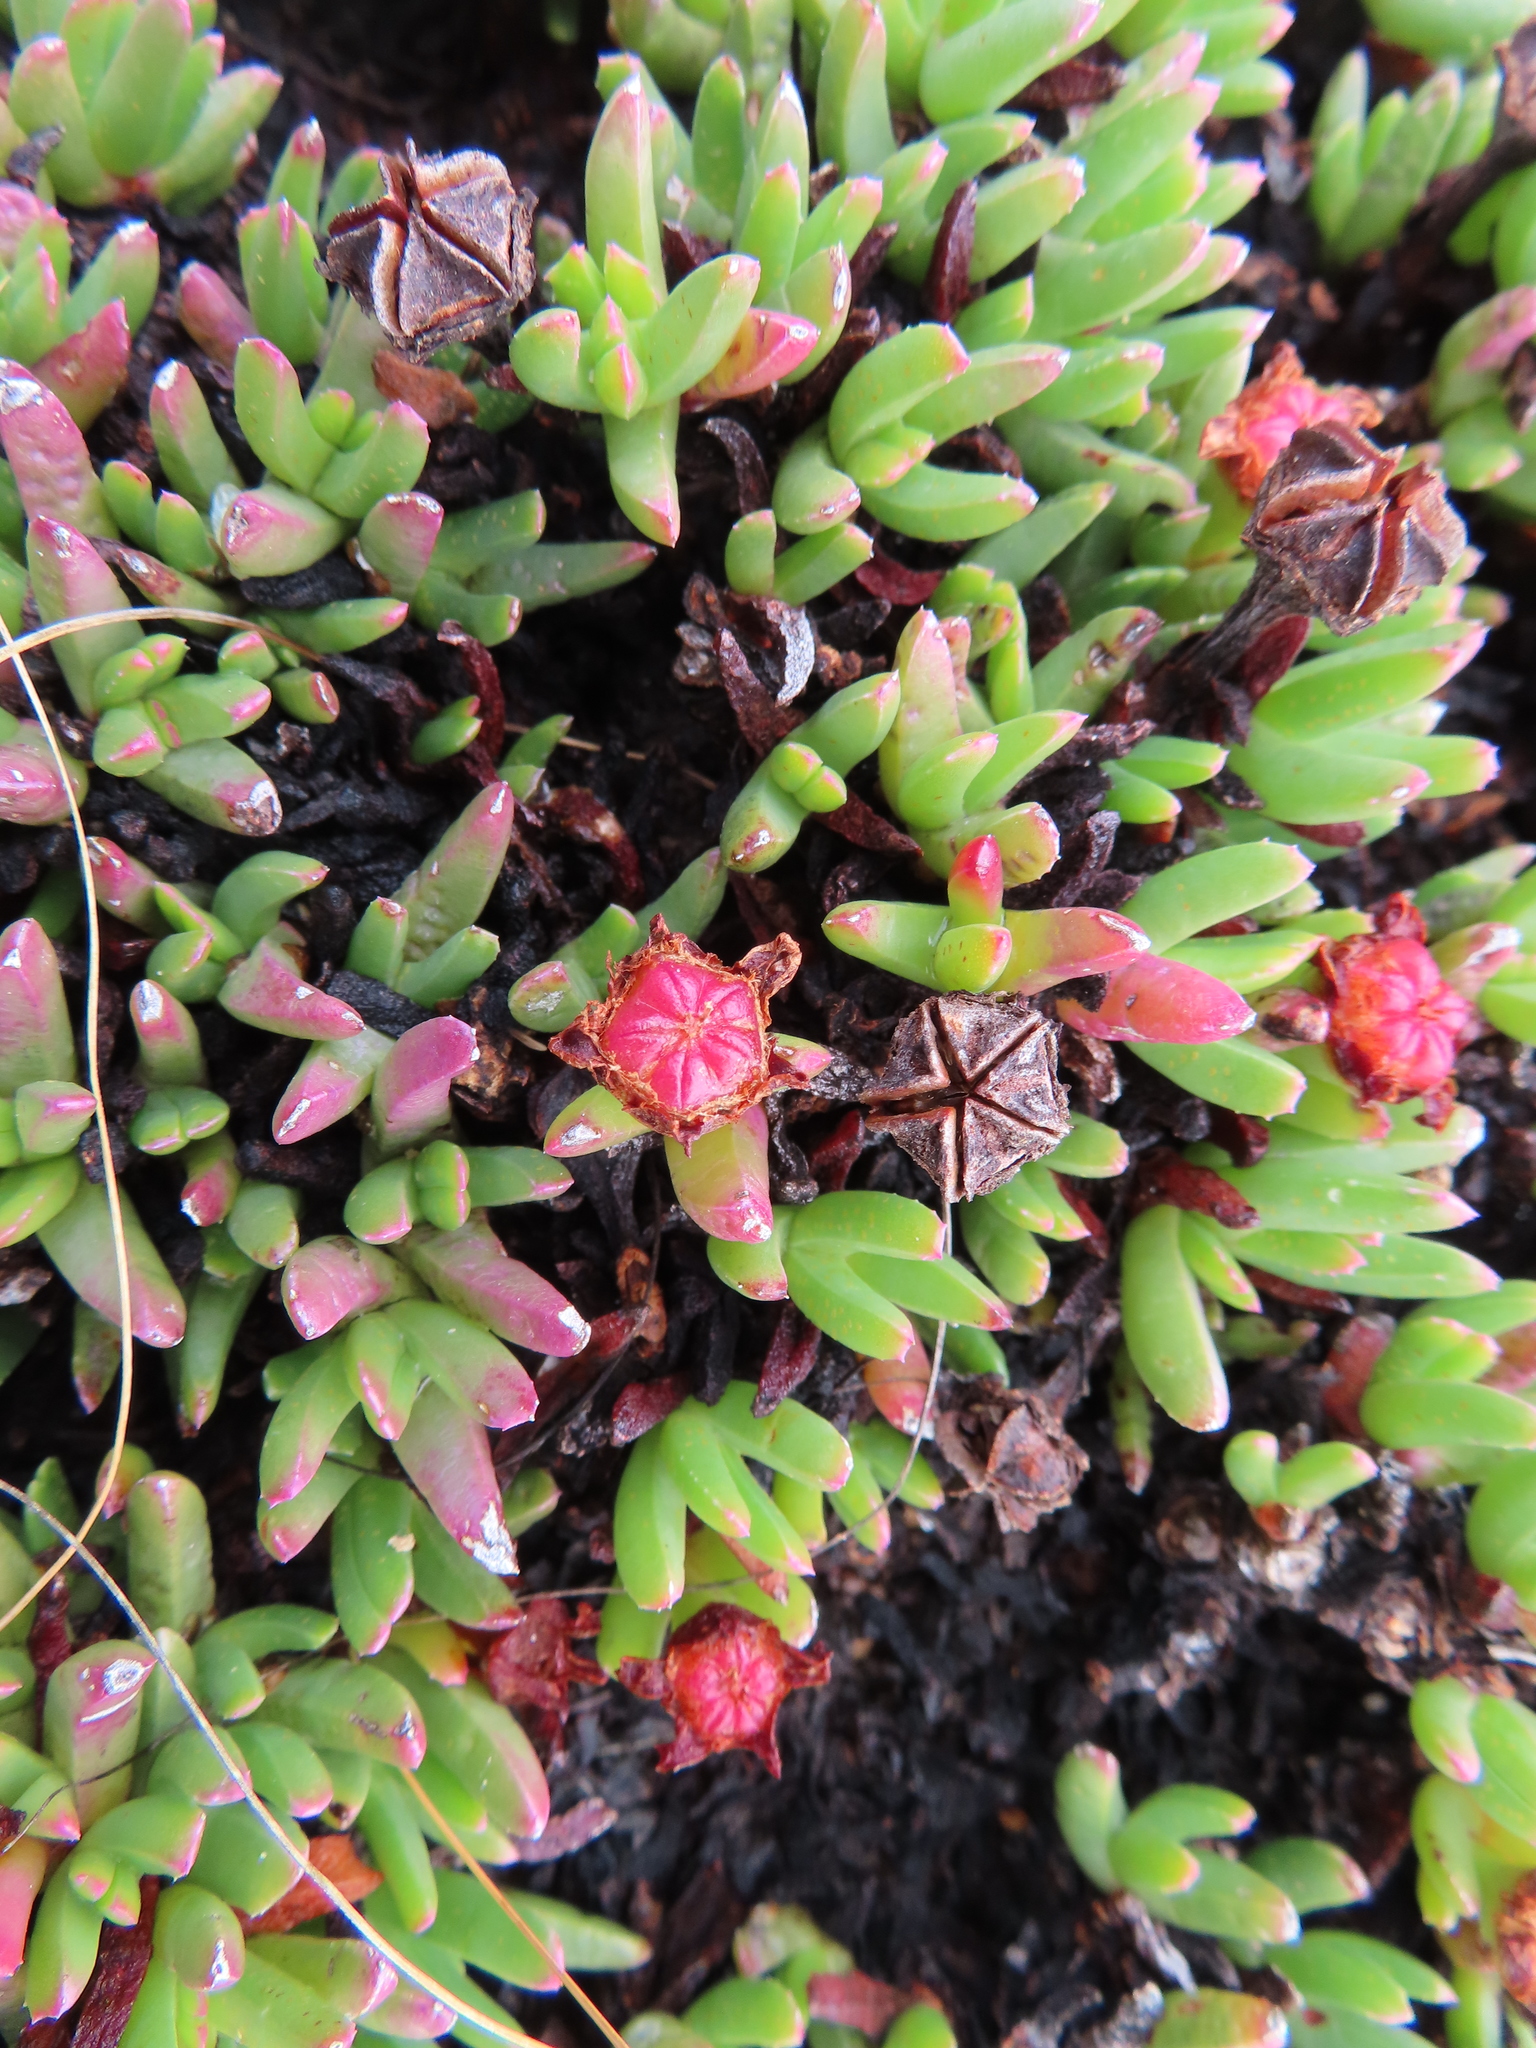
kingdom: Plantae
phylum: Tracheophyta
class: Magnoliopsida
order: Caryophyllales
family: Aizoaceae
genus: Acrodon
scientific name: Acrodon parvifolius
